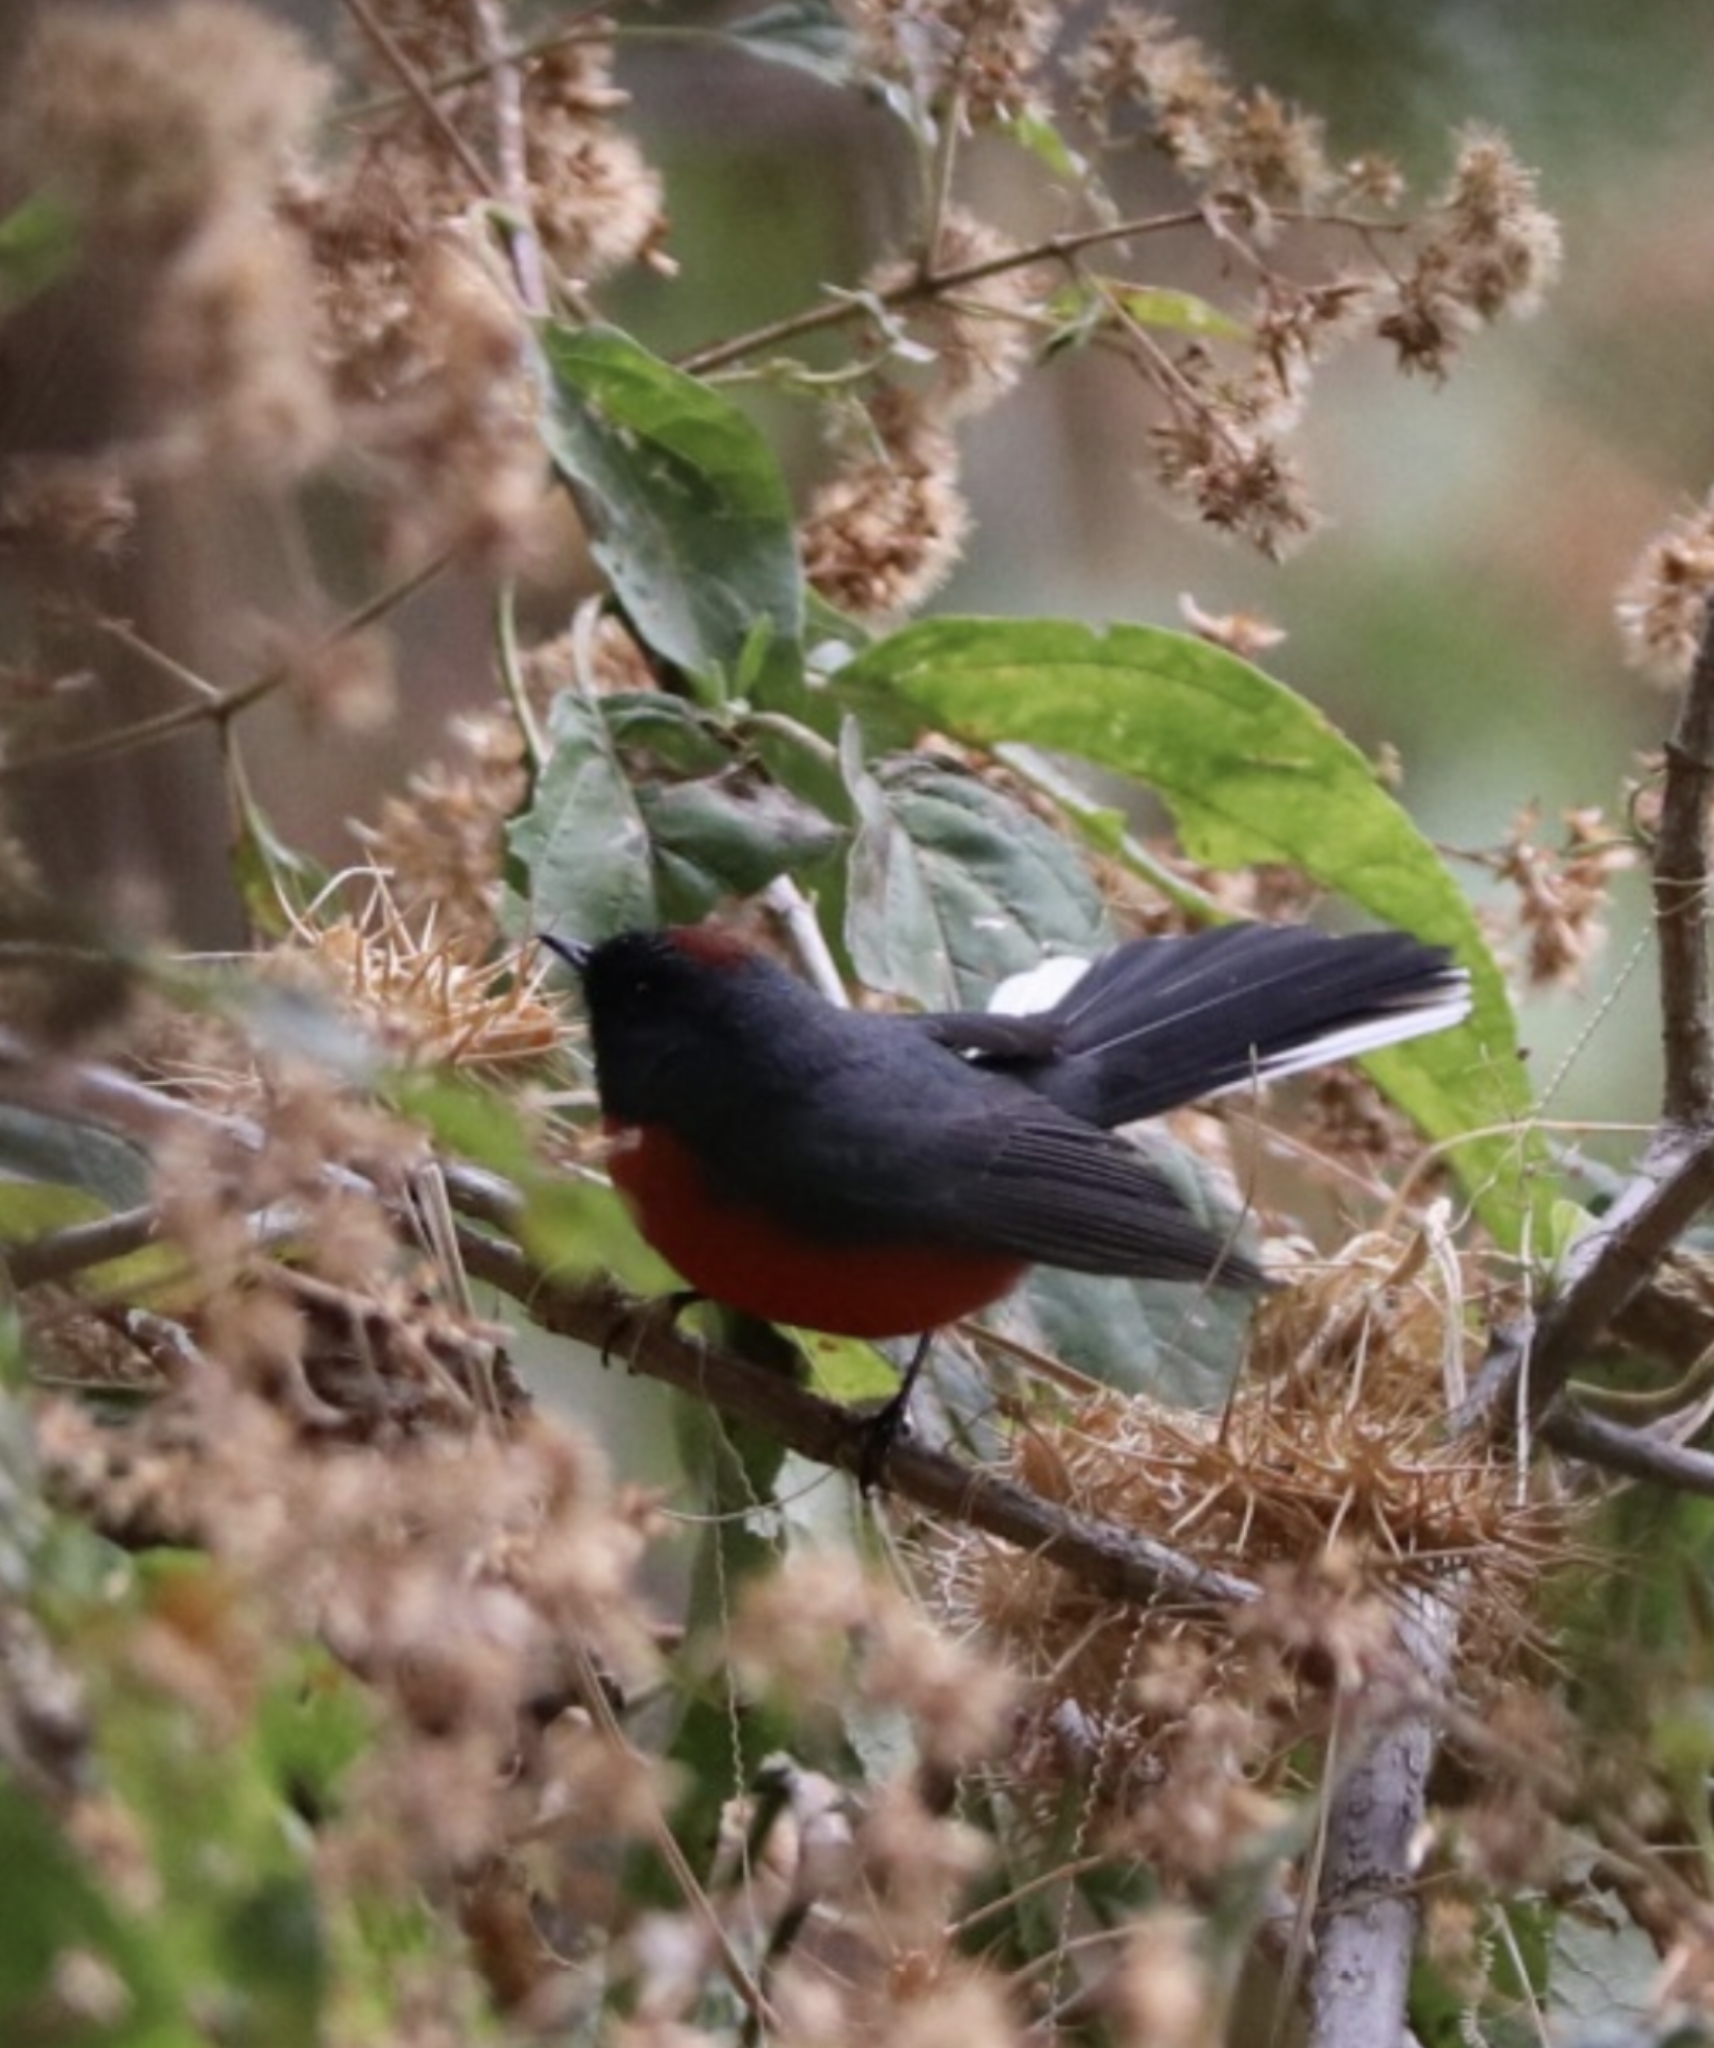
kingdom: Animalia
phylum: Chordata
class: Aves
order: Passeriformes
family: Parulidae
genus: Myioborus
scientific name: Myioborus miniatus
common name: Slate-throated redstart
